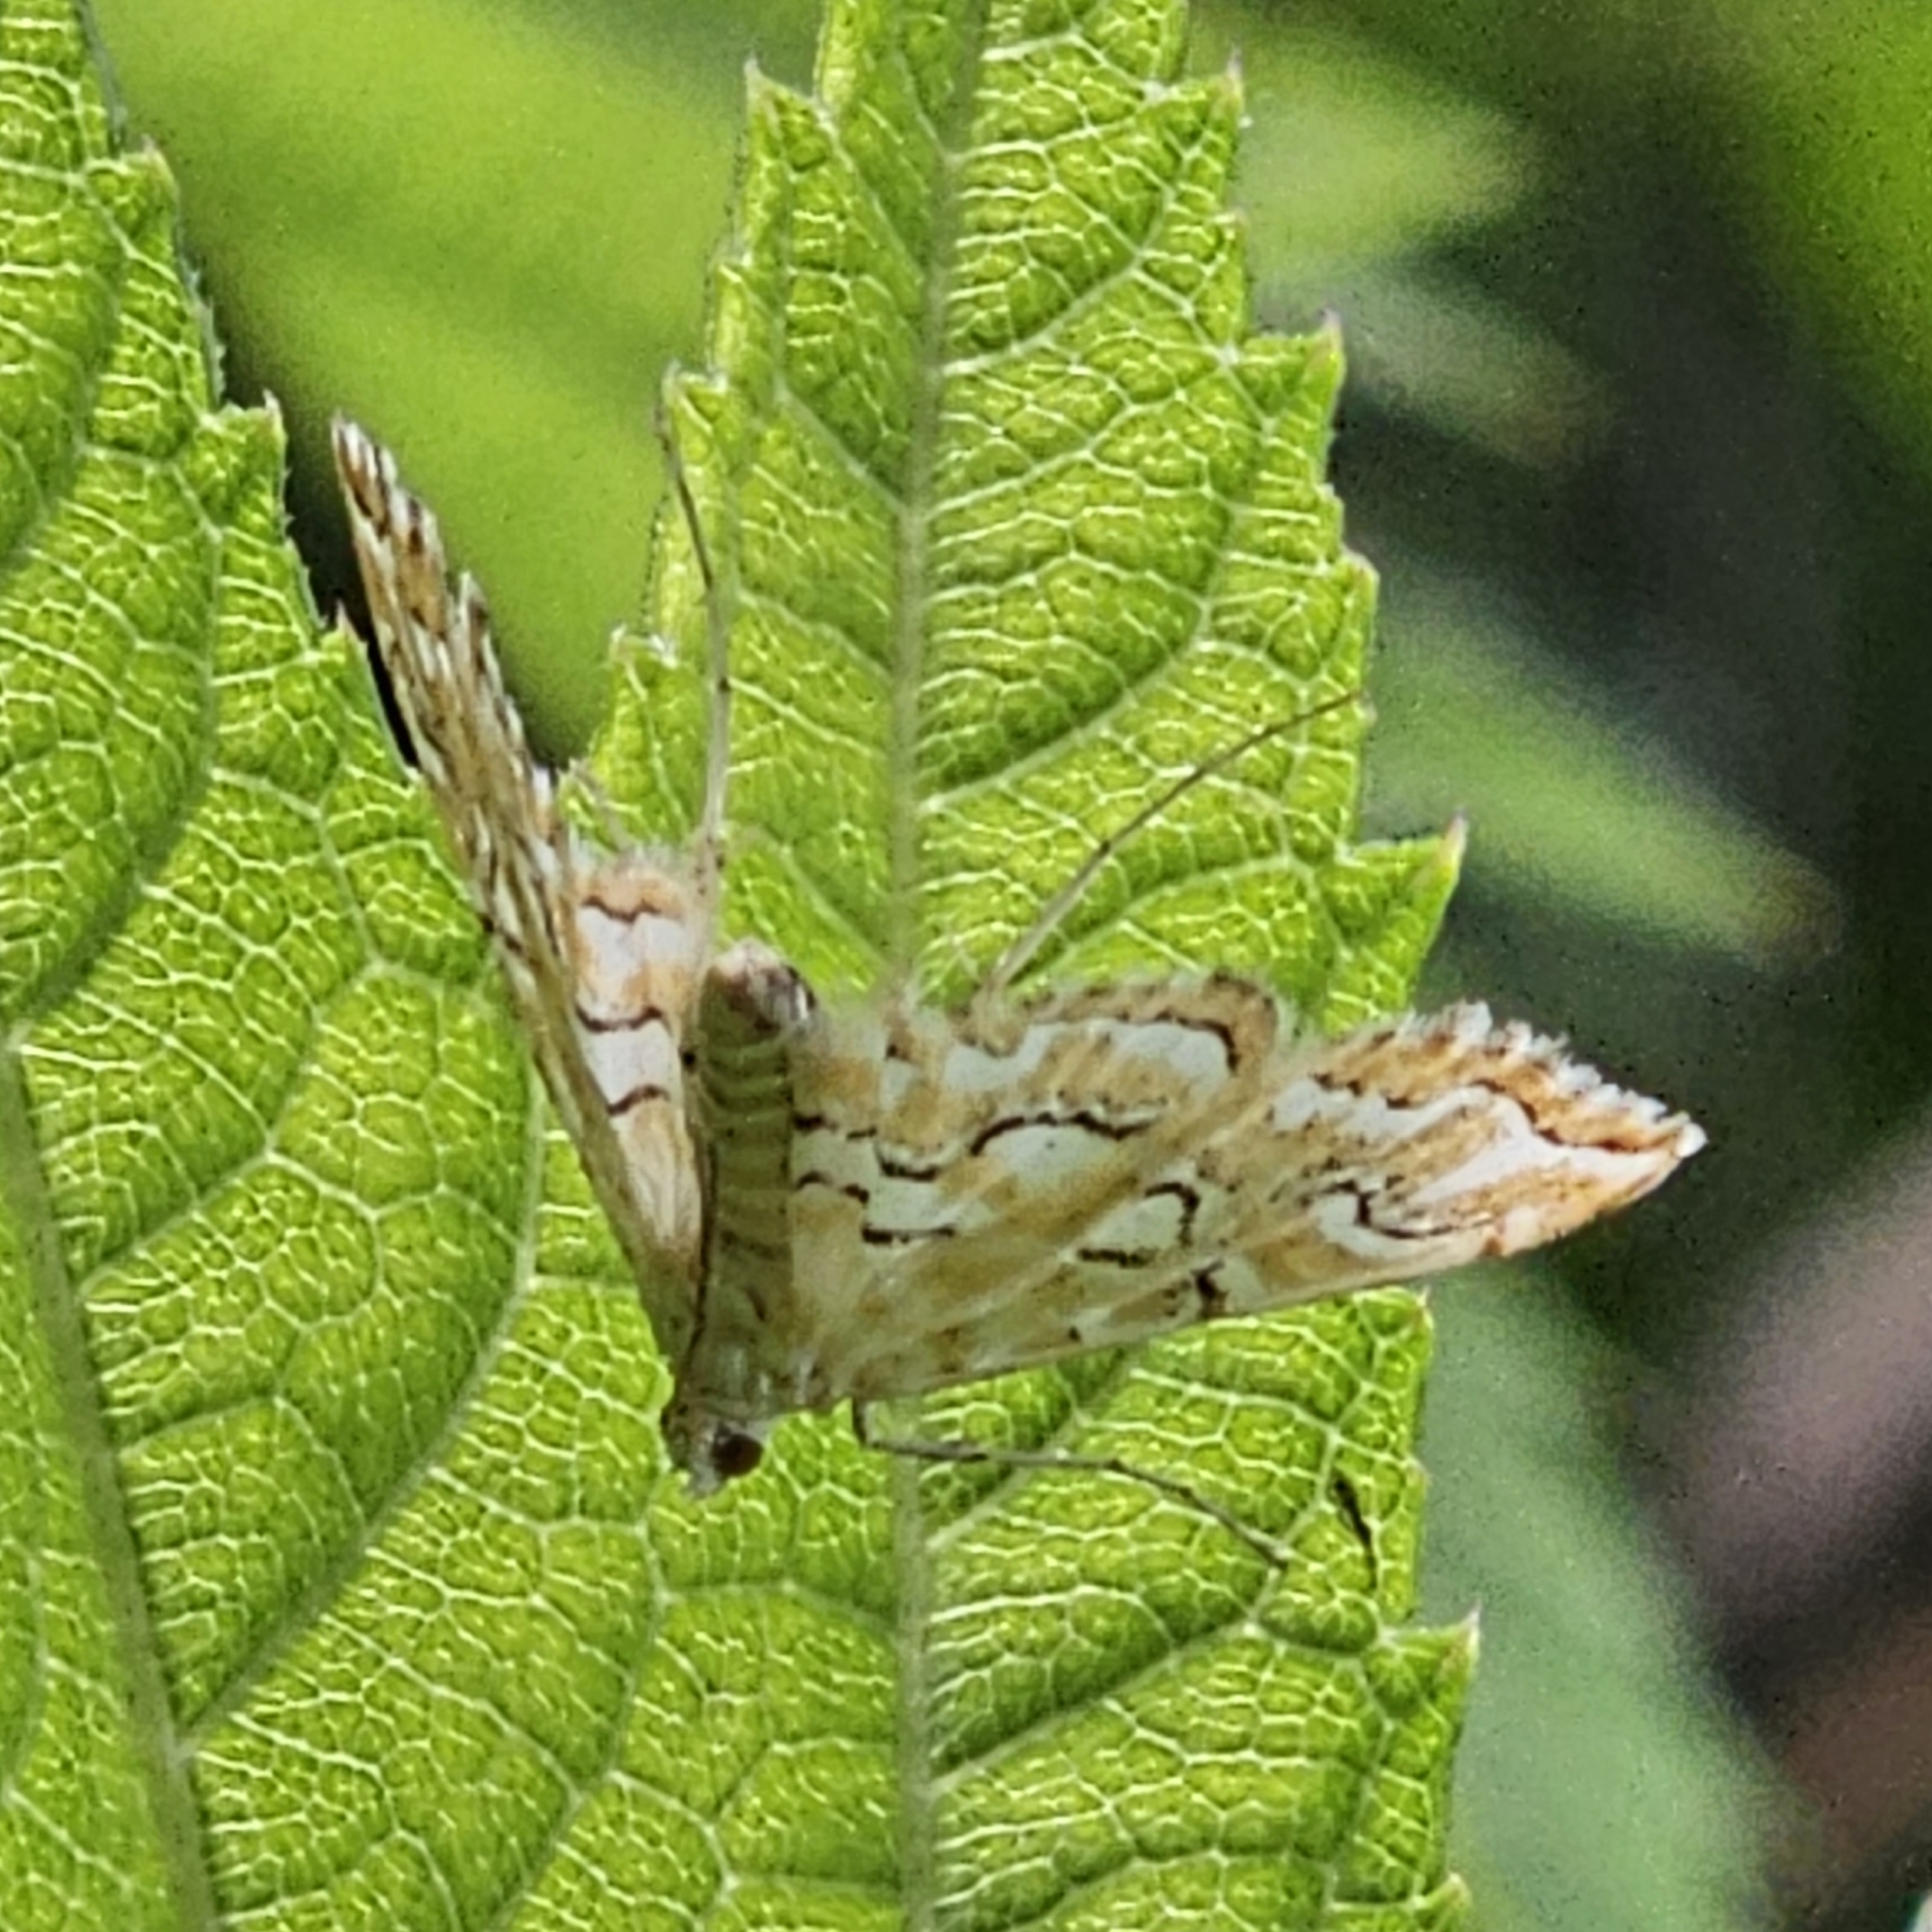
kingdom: Animalia
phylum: Arthropoda
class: Insecta
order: Lepidoptera
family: Crambidae
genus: Elophila
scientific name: Elophila icciusalis
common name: Pondside pyralid moth
